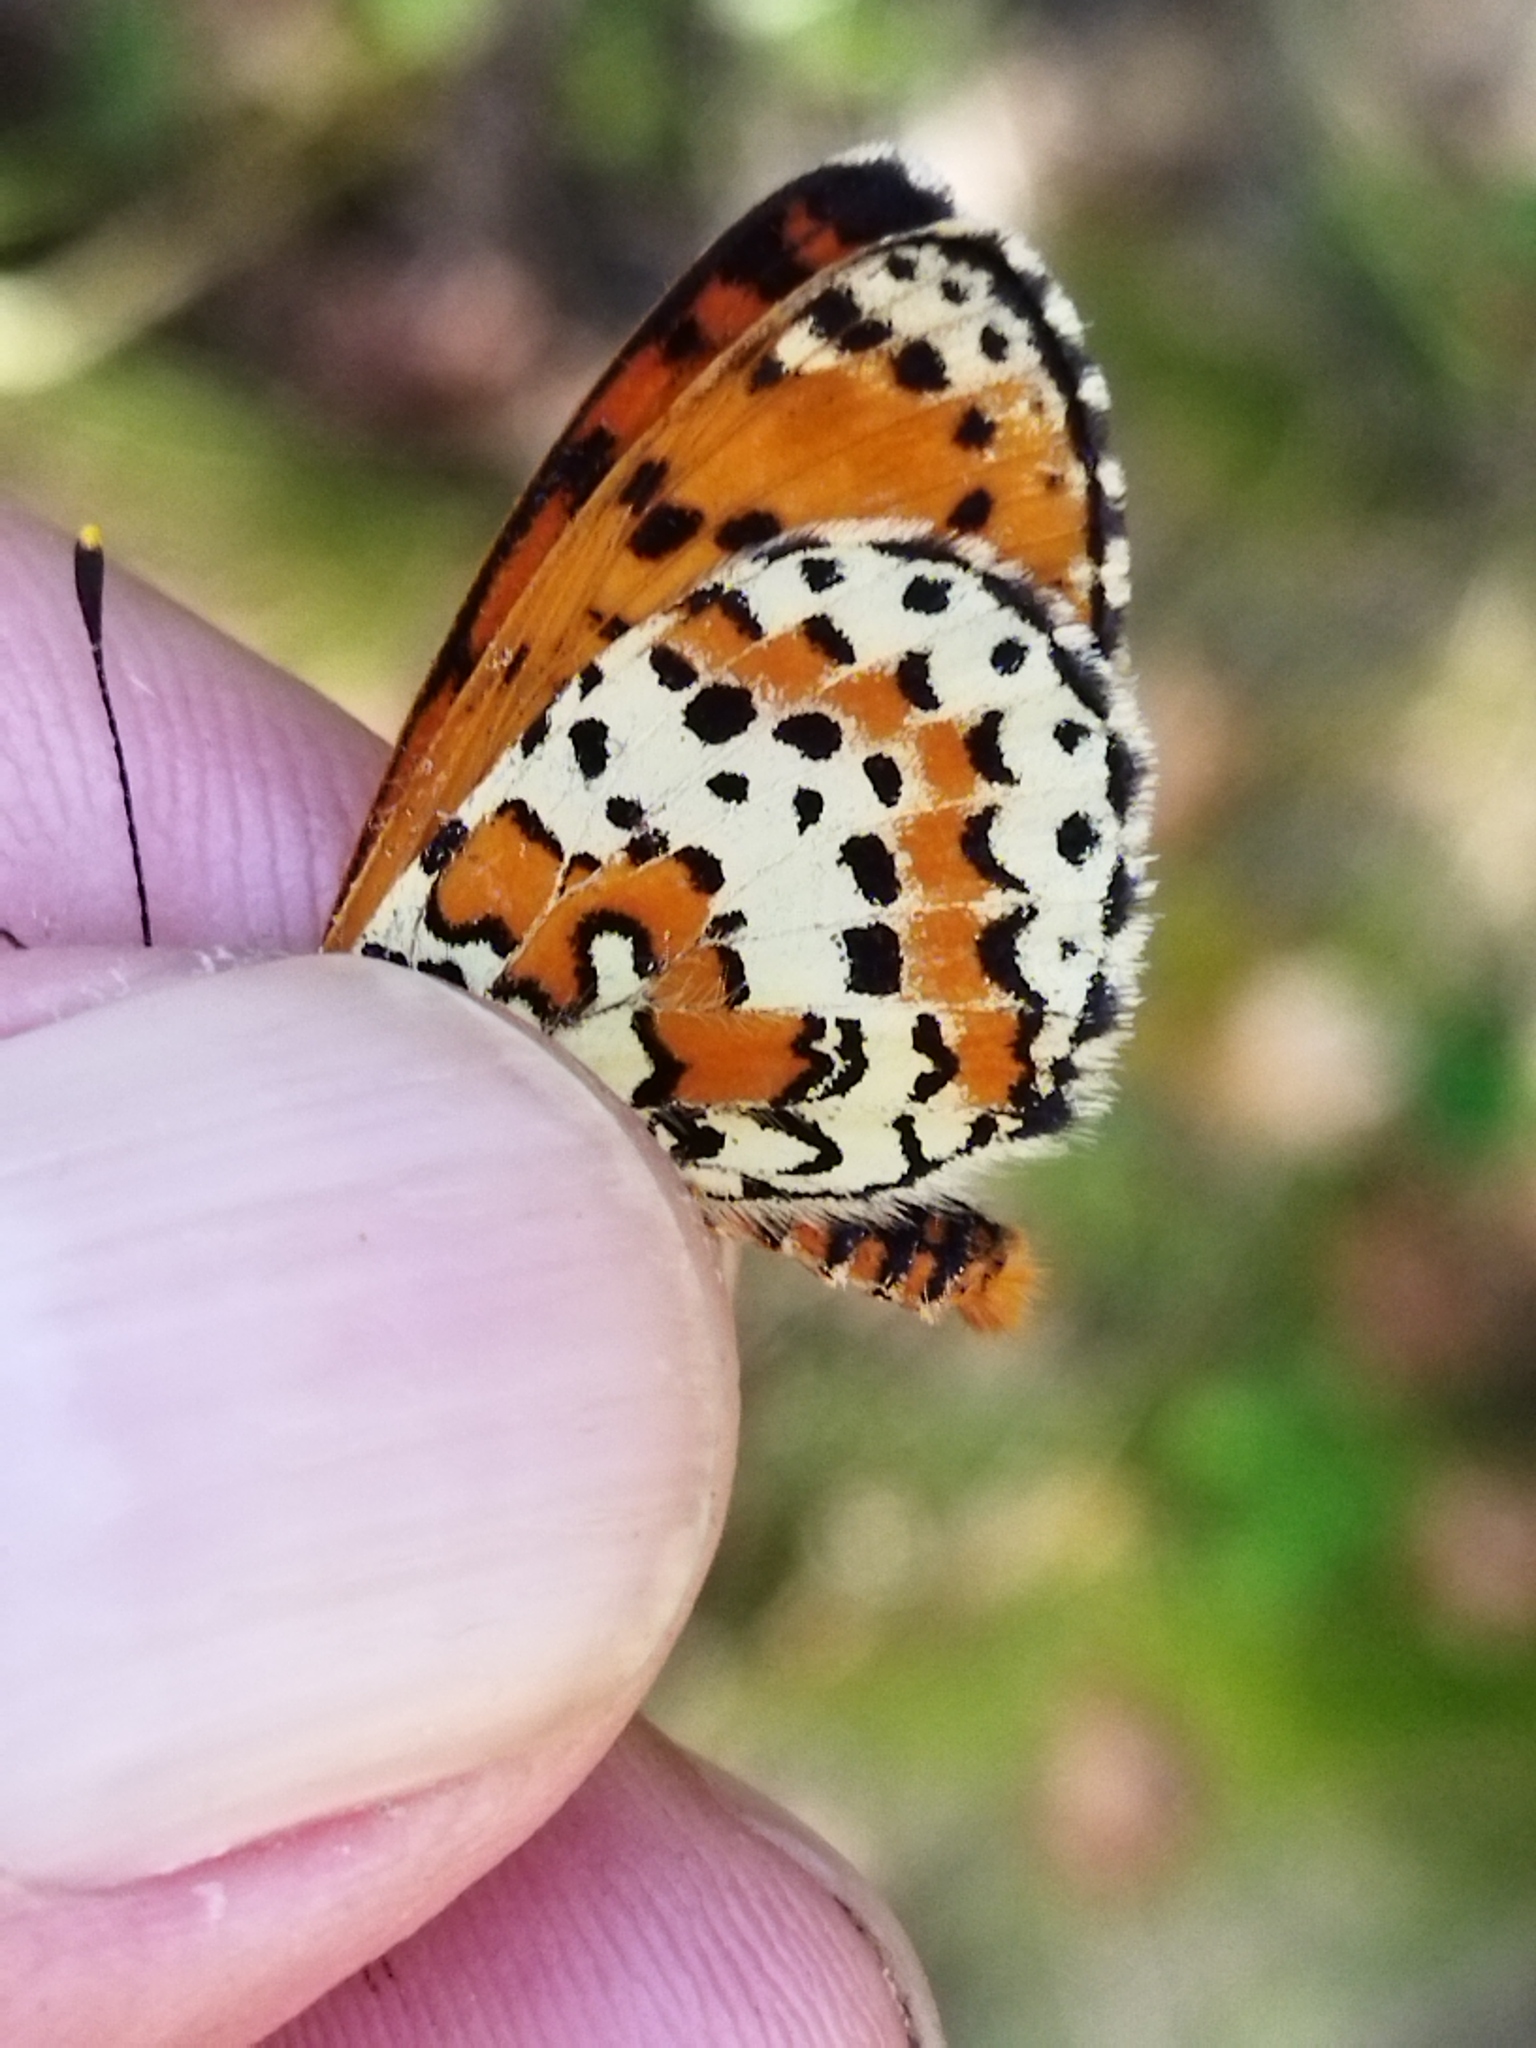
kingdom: Animalia
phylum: Arthropoda
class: Insecta
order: Lepidoptera
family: Nymphalidae
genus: Melitaea
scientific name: Melitaea didyma
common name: Spotted fritillary
